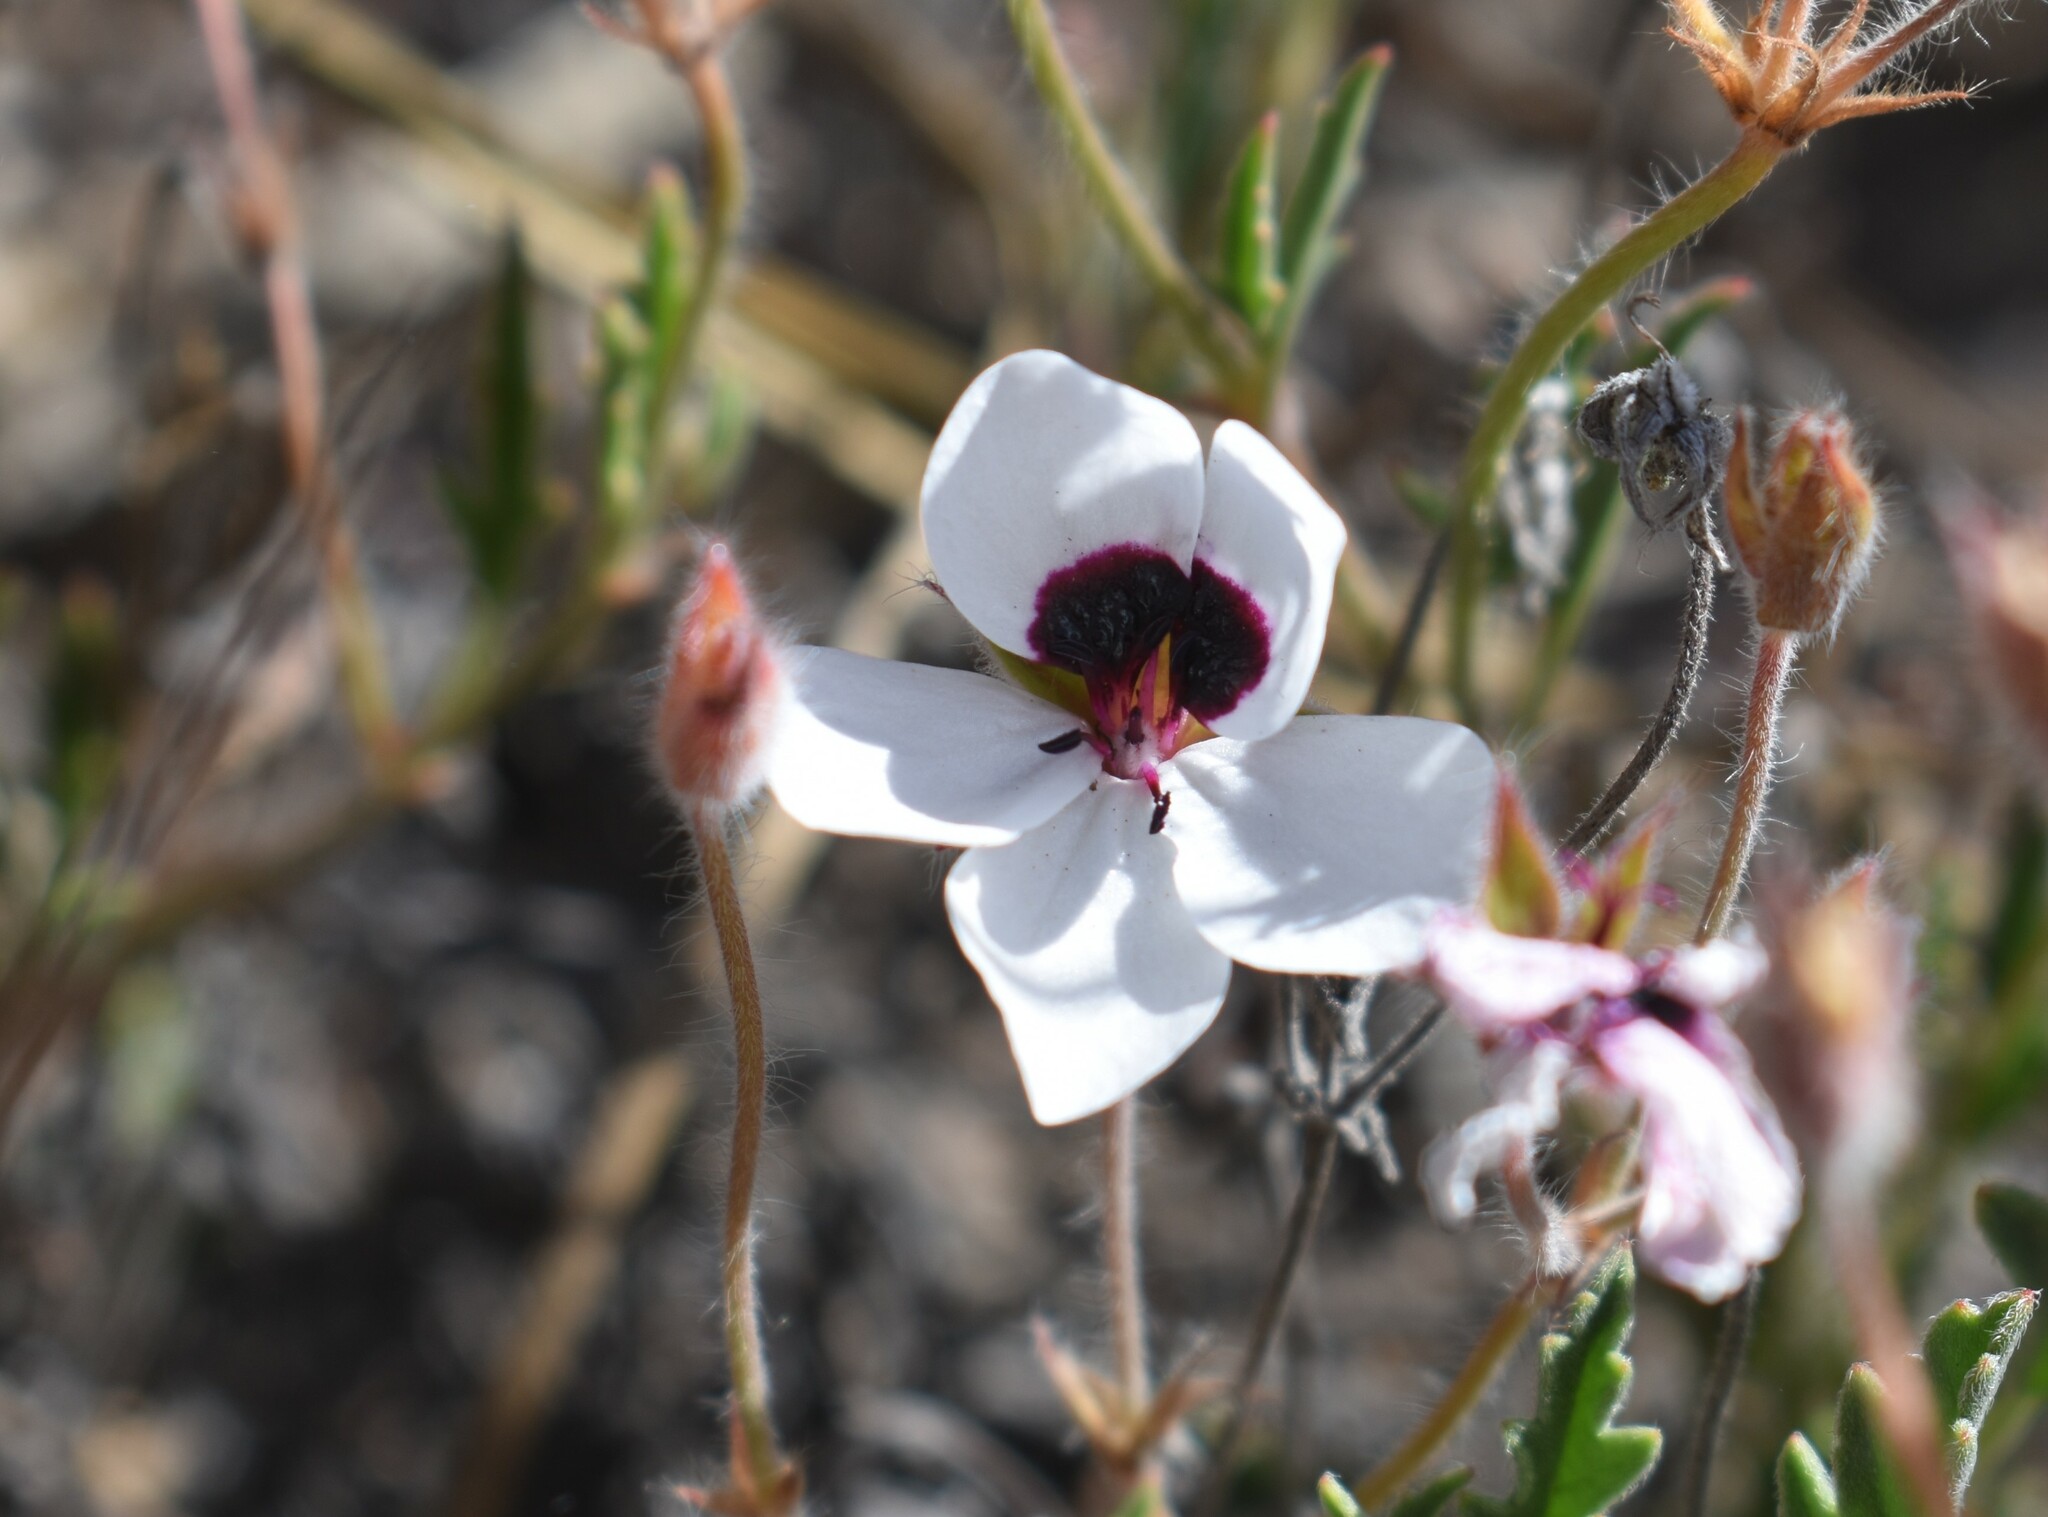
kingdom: Plantae
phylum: Tracheophyta
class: Magnoliopsida
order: Geraniales
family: Geraniaceae
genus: Pelargonium
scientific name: Pelargonium tricolor
